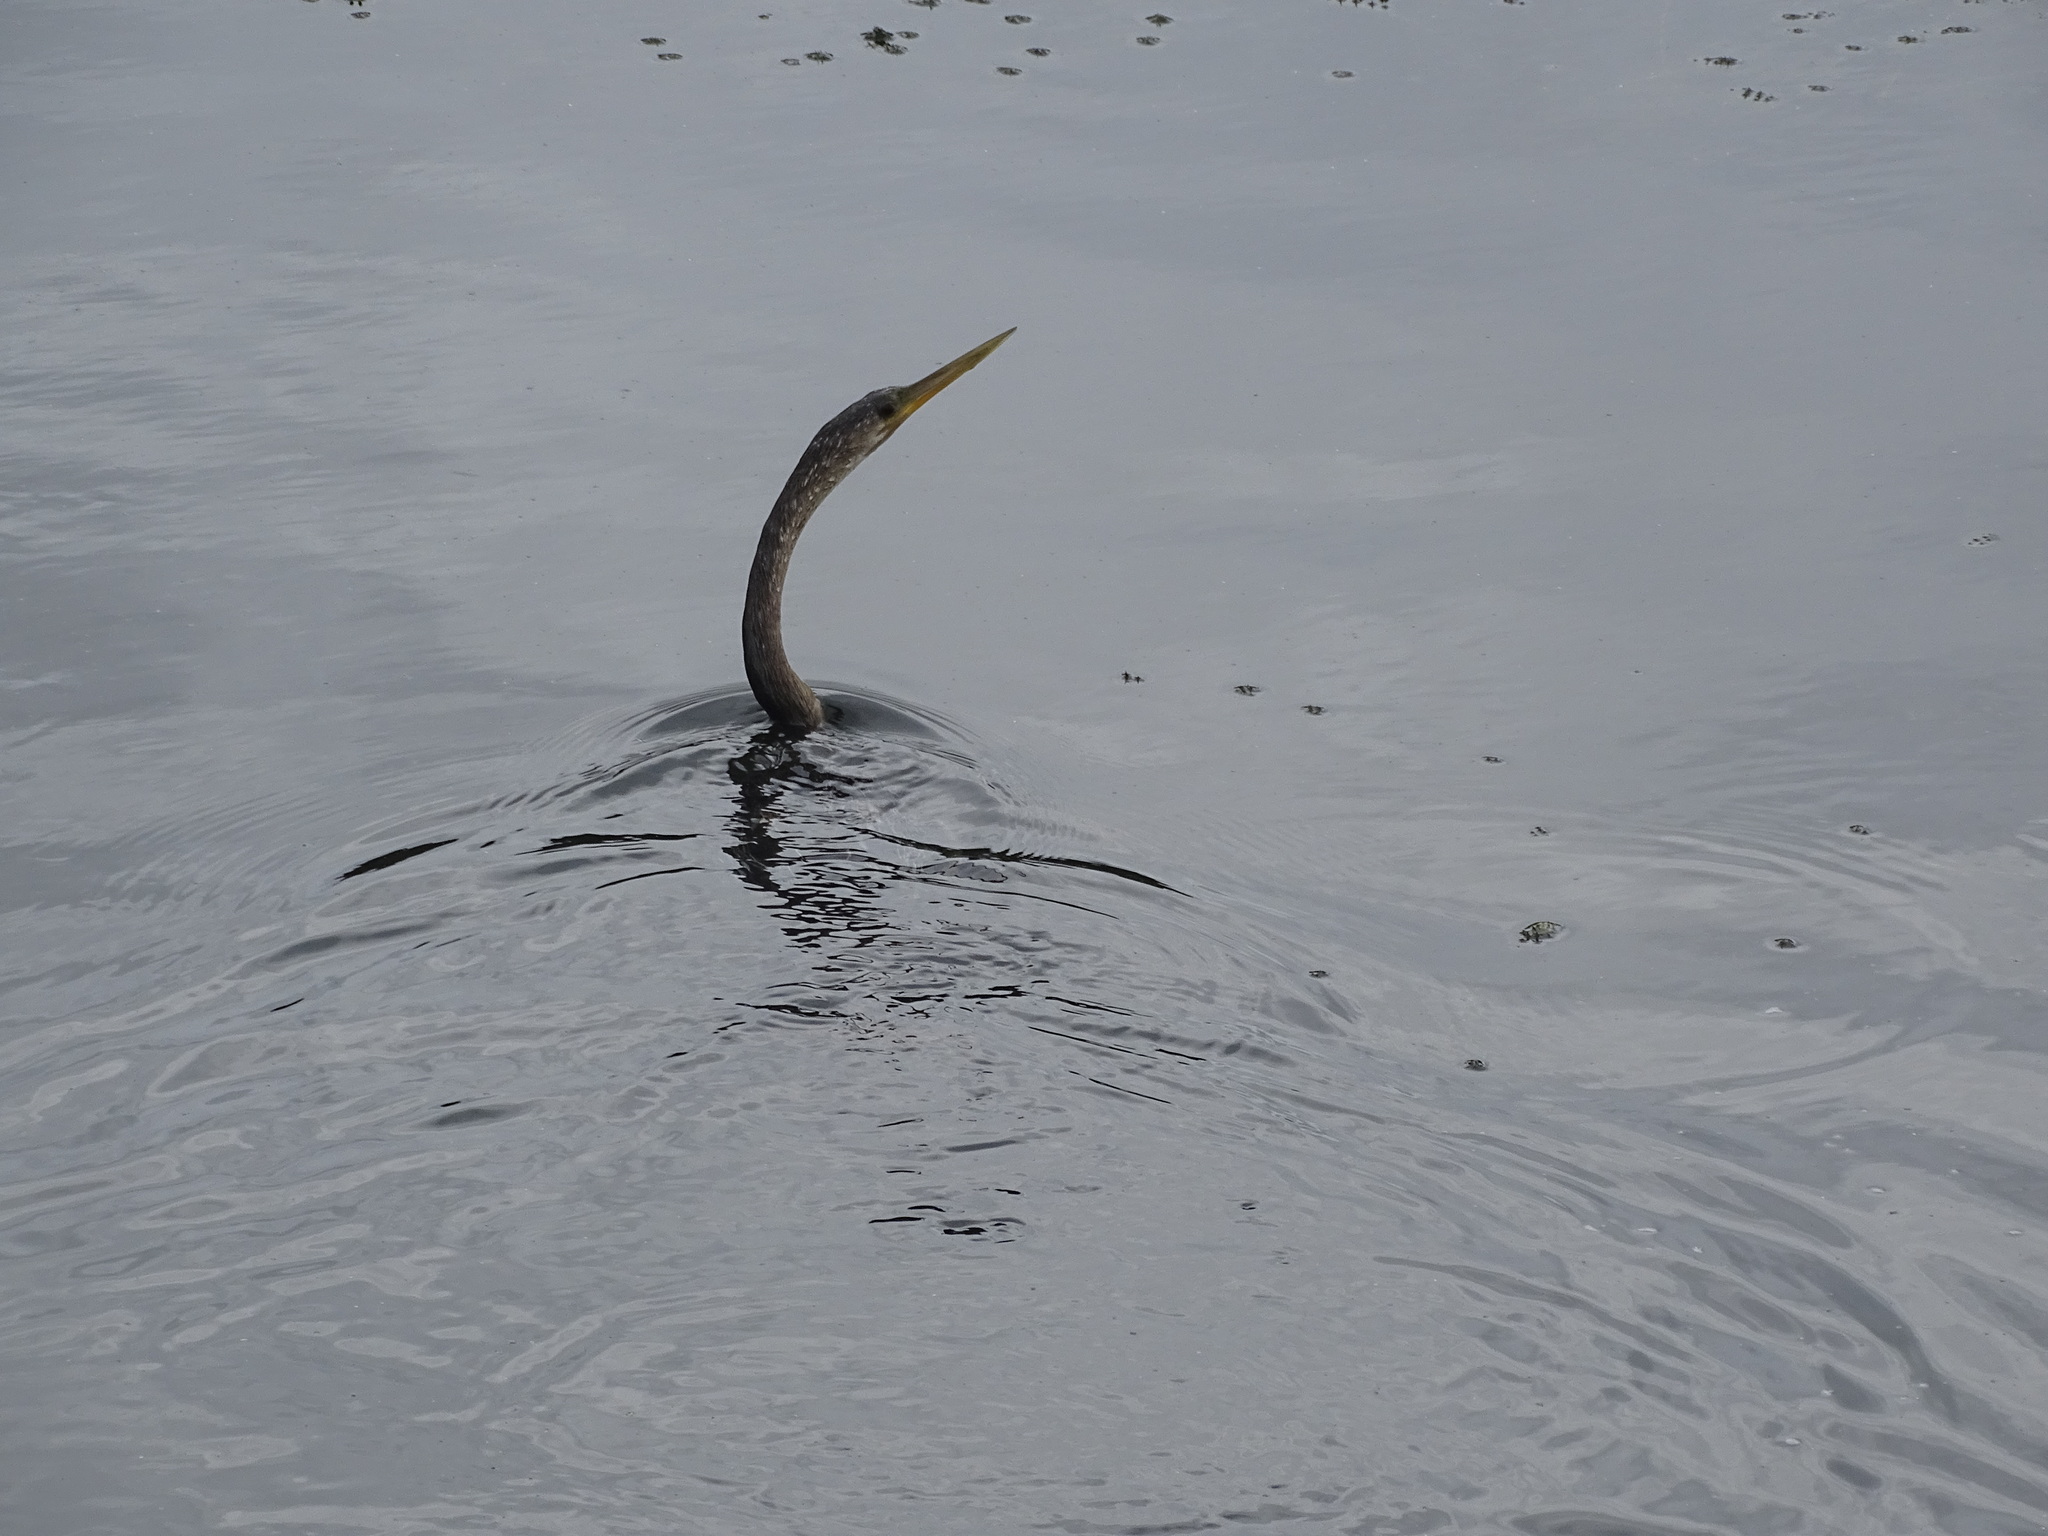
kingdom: Animalia
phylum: Chordata
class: Aves
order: Suliformes
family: Anhingidae
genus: Anhinga
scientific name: Anhinga anhinga
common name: Anhinga
